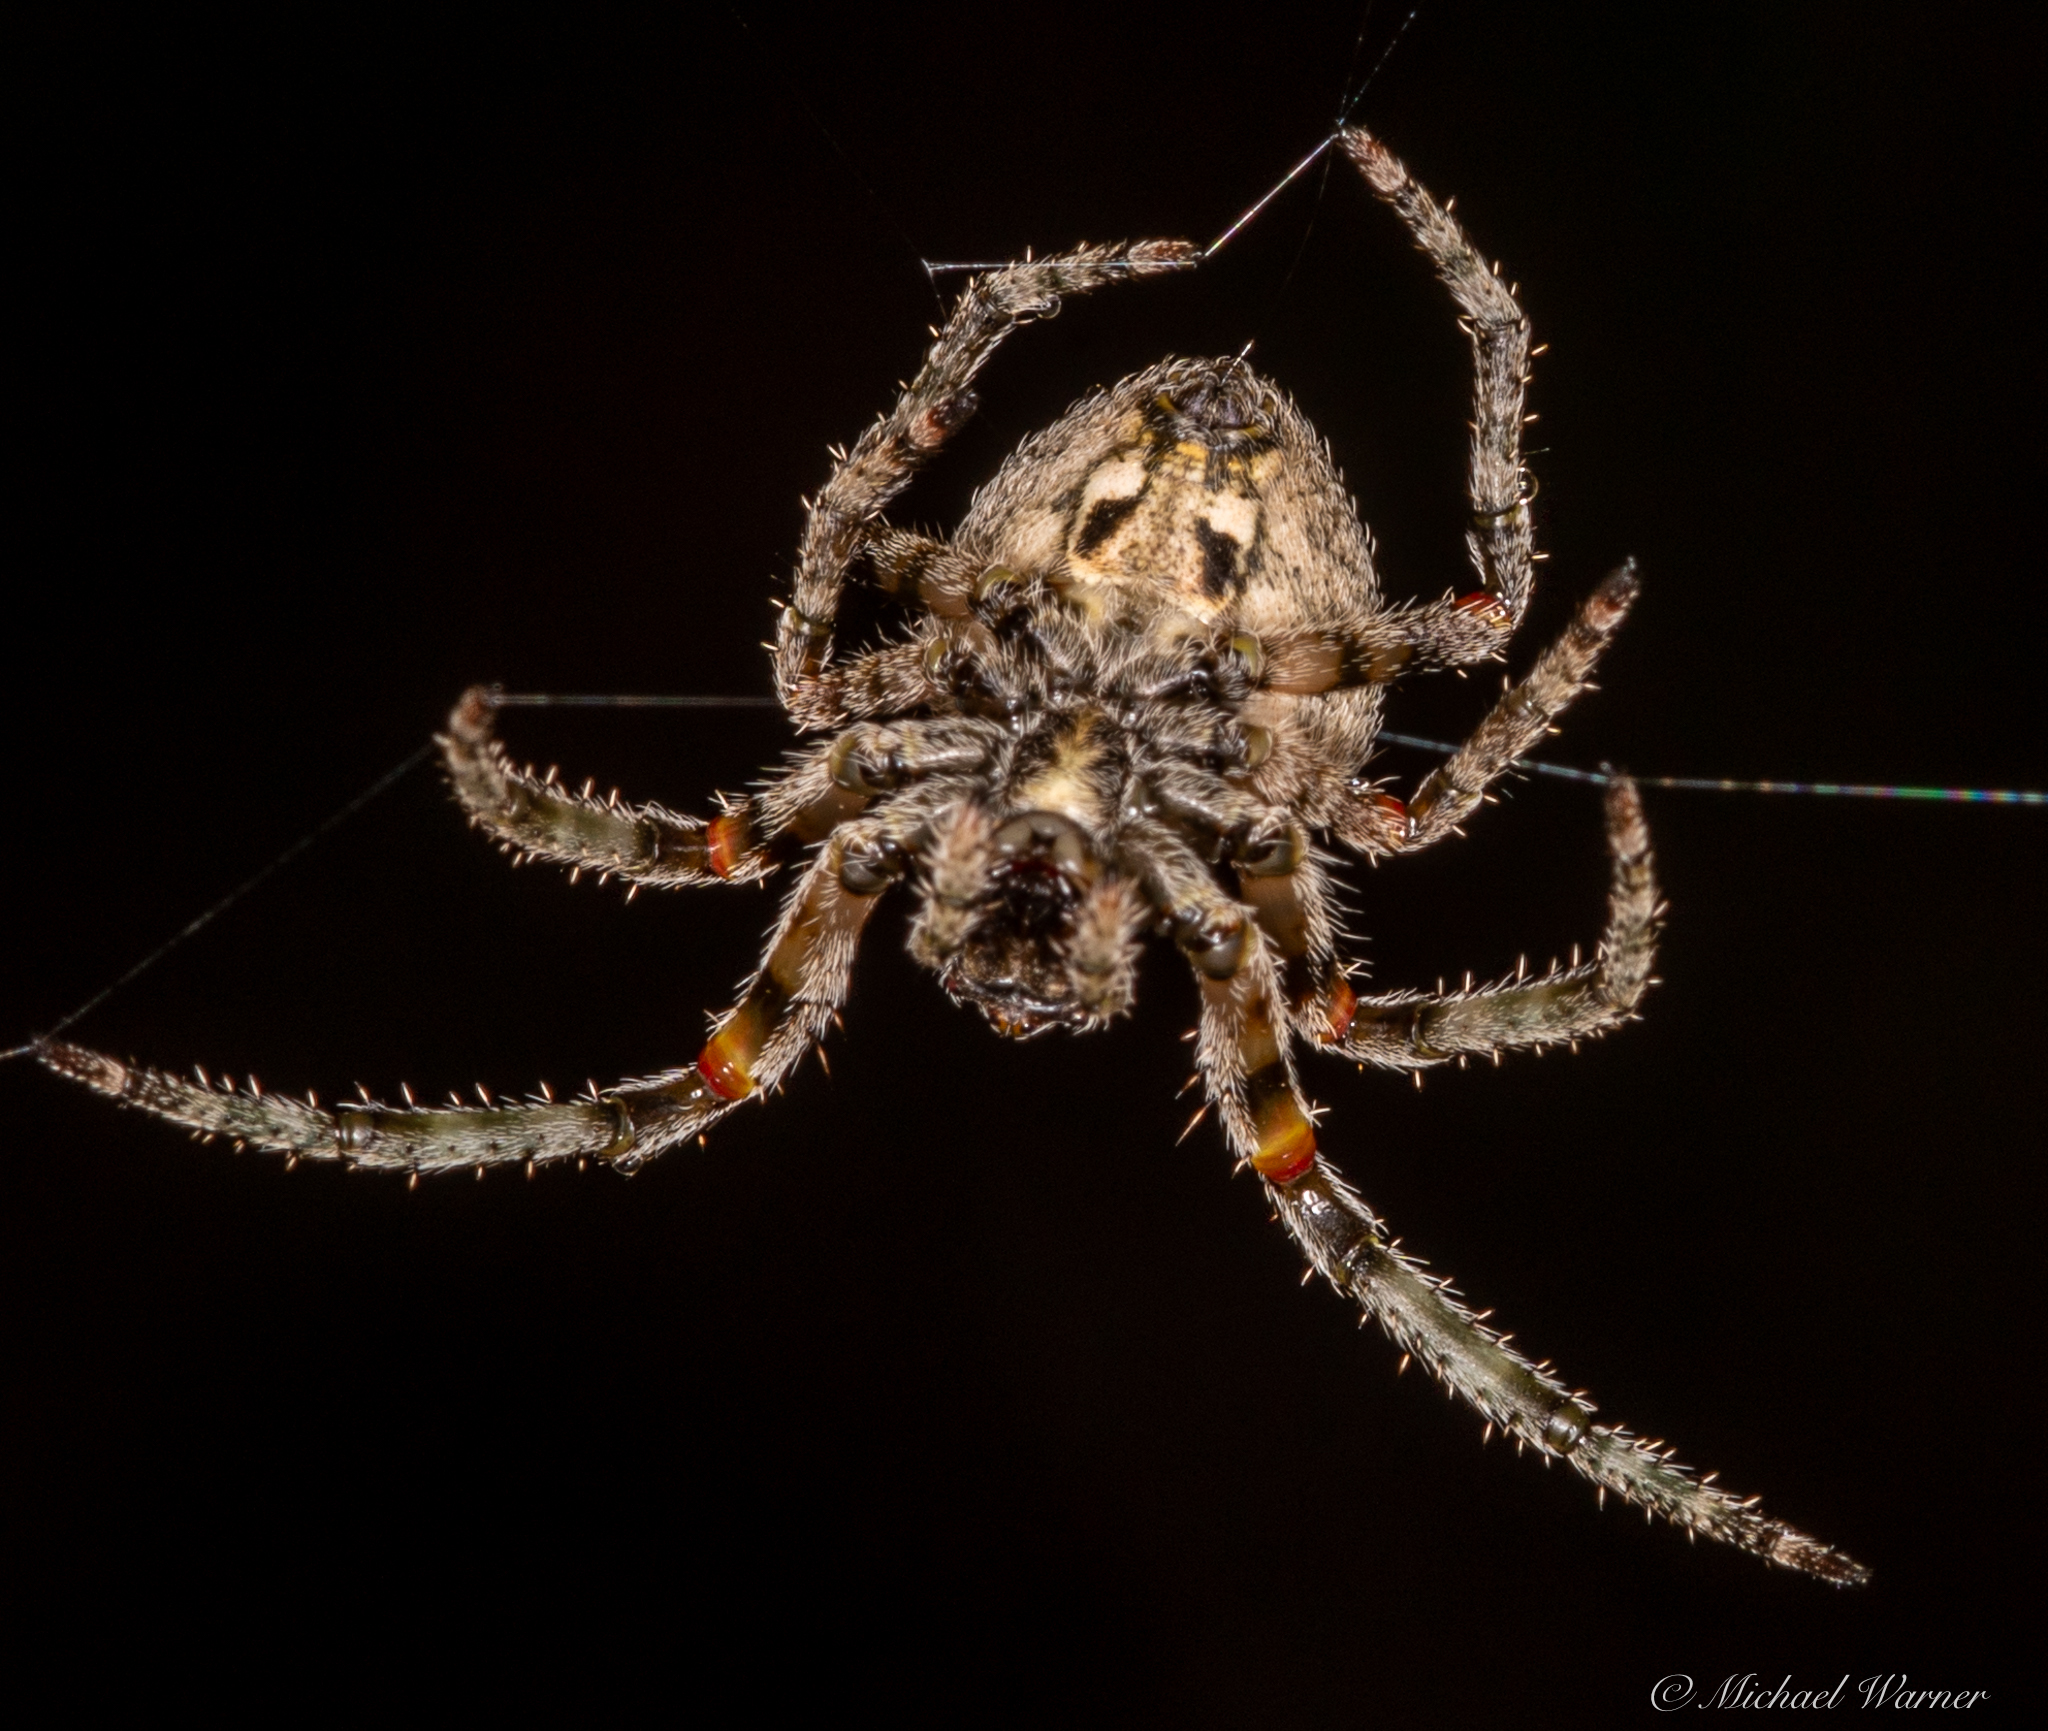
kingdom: Animalia
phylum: Arthropoda
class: Arachnida
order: Araneae
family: Araneidae
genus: Araneus
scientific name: Araneus andrewsi
